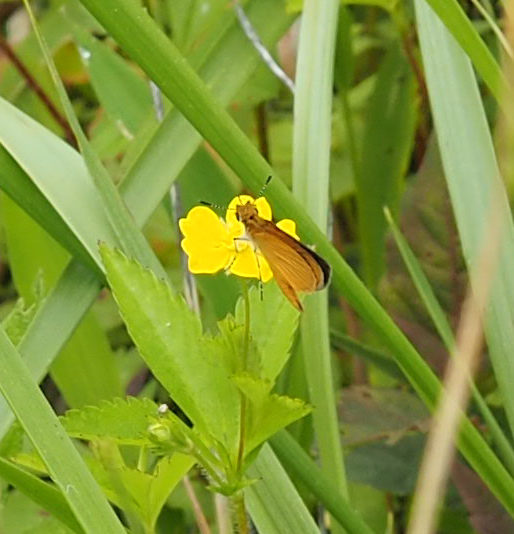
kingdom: Animalia
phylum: Arthropoda
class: Insecta
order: Lepidoptera
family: Hesperiidae
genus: Ancyloxypha
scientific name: Ancyloxypha numitor
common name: Least skipper
